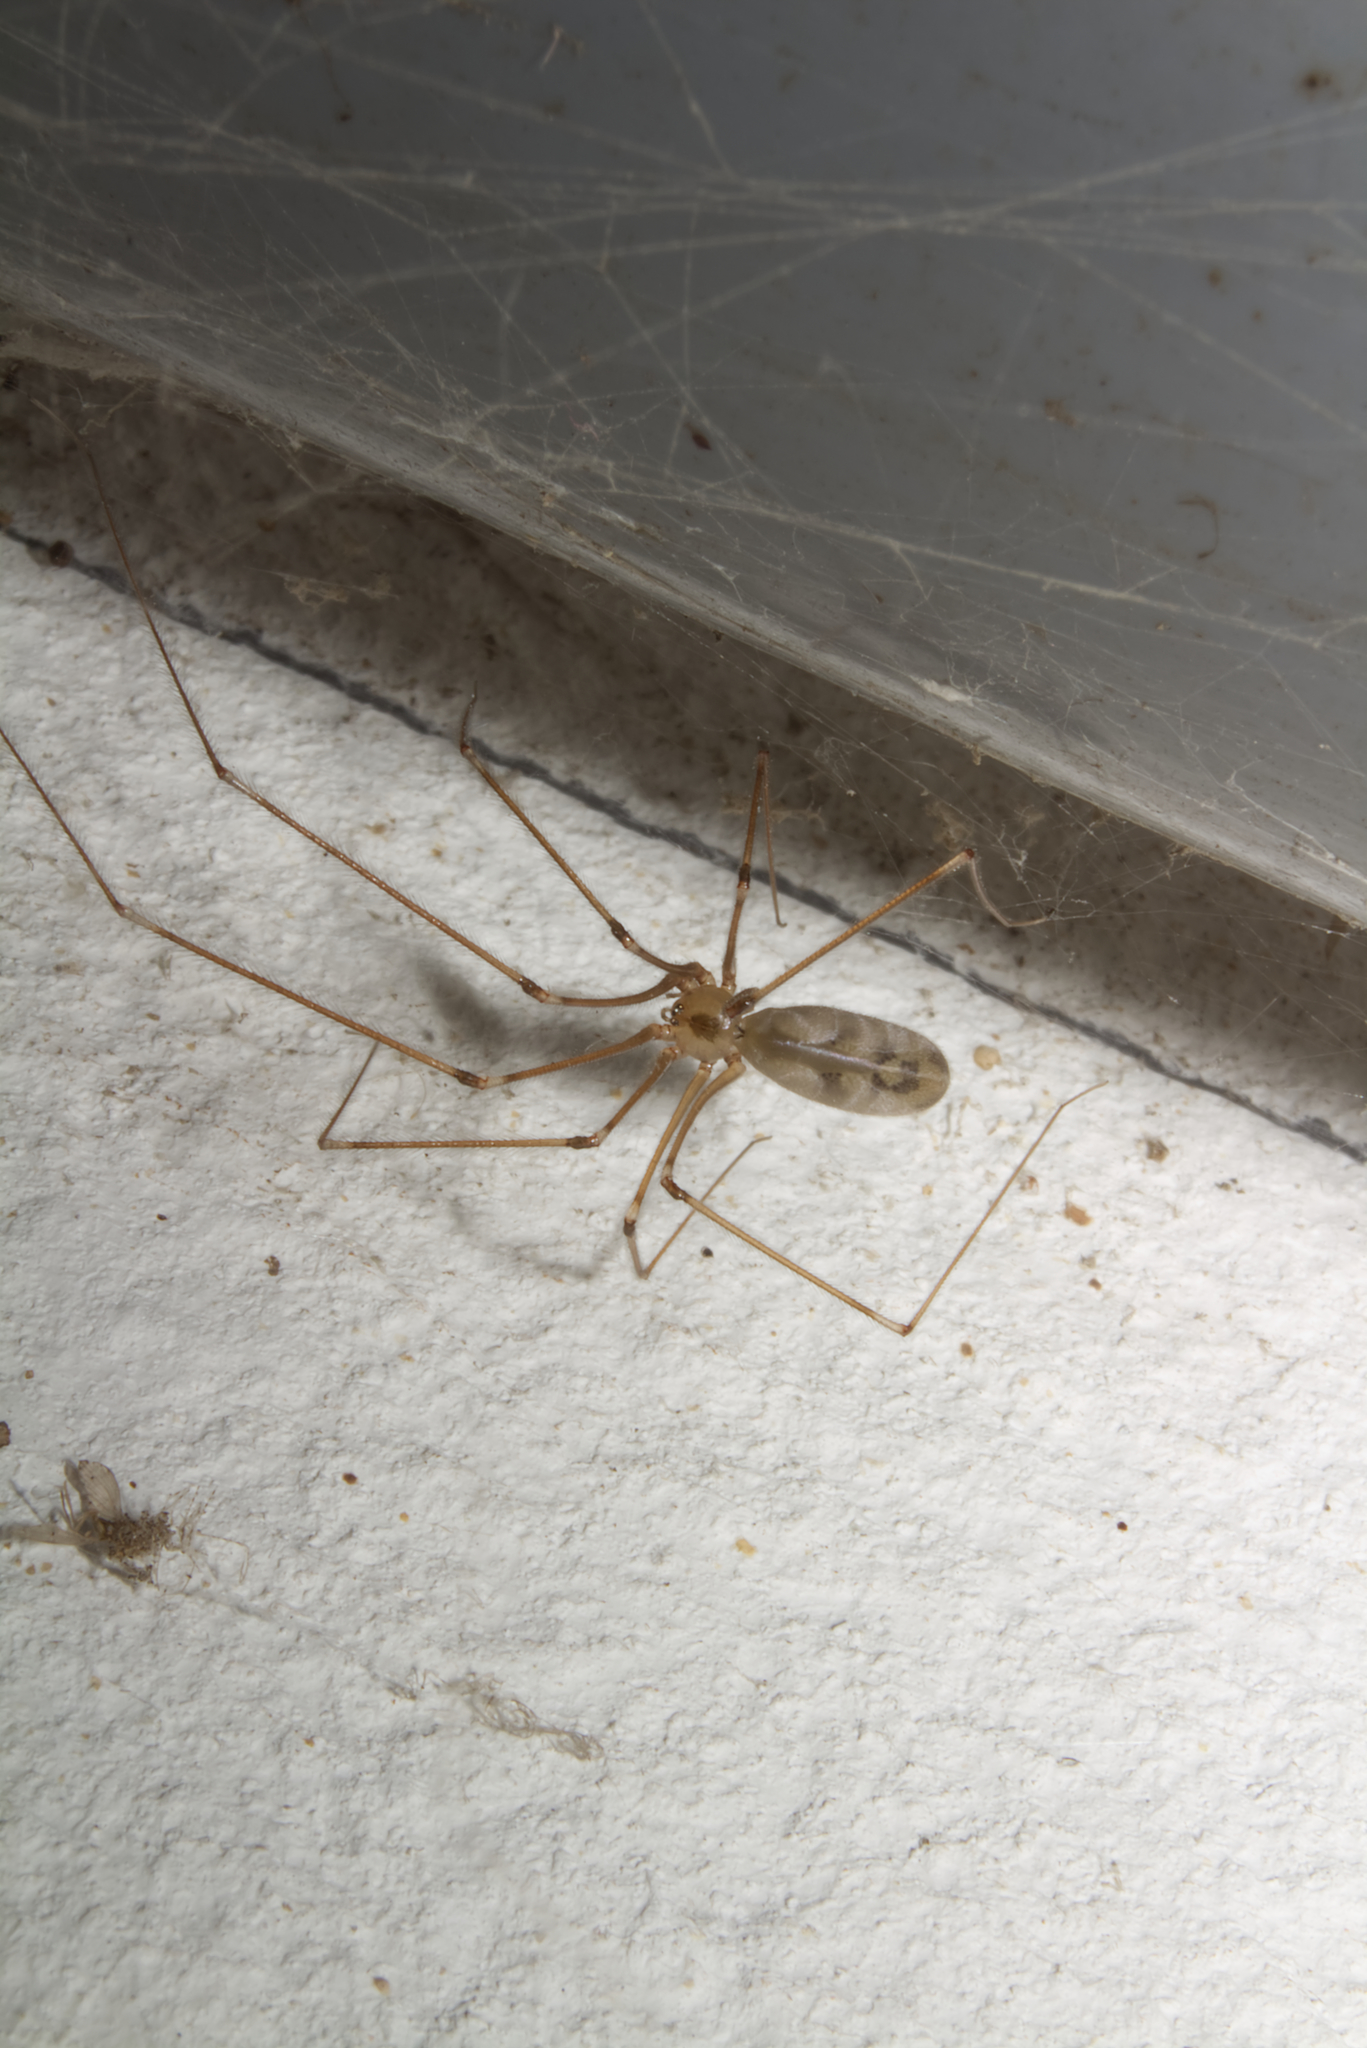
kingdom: Animalia
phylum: Arthropoda
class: Arachnida
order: Araneae
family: Pholcidae
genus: Pholcus
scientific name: Pholcus phalangioides
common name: Longbodied cellar spider
